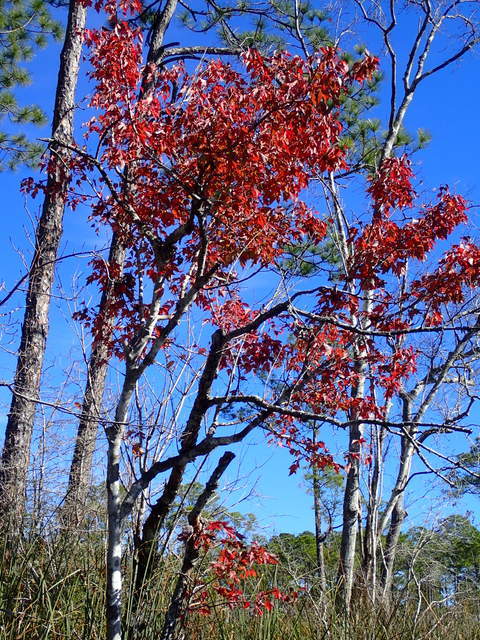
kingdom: Plantae
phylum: Tracheophyta
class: Magnoliopsida
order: Sapindales
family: Sapindaceae
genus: Acer
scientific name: Acer rubrum
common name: Red maple
